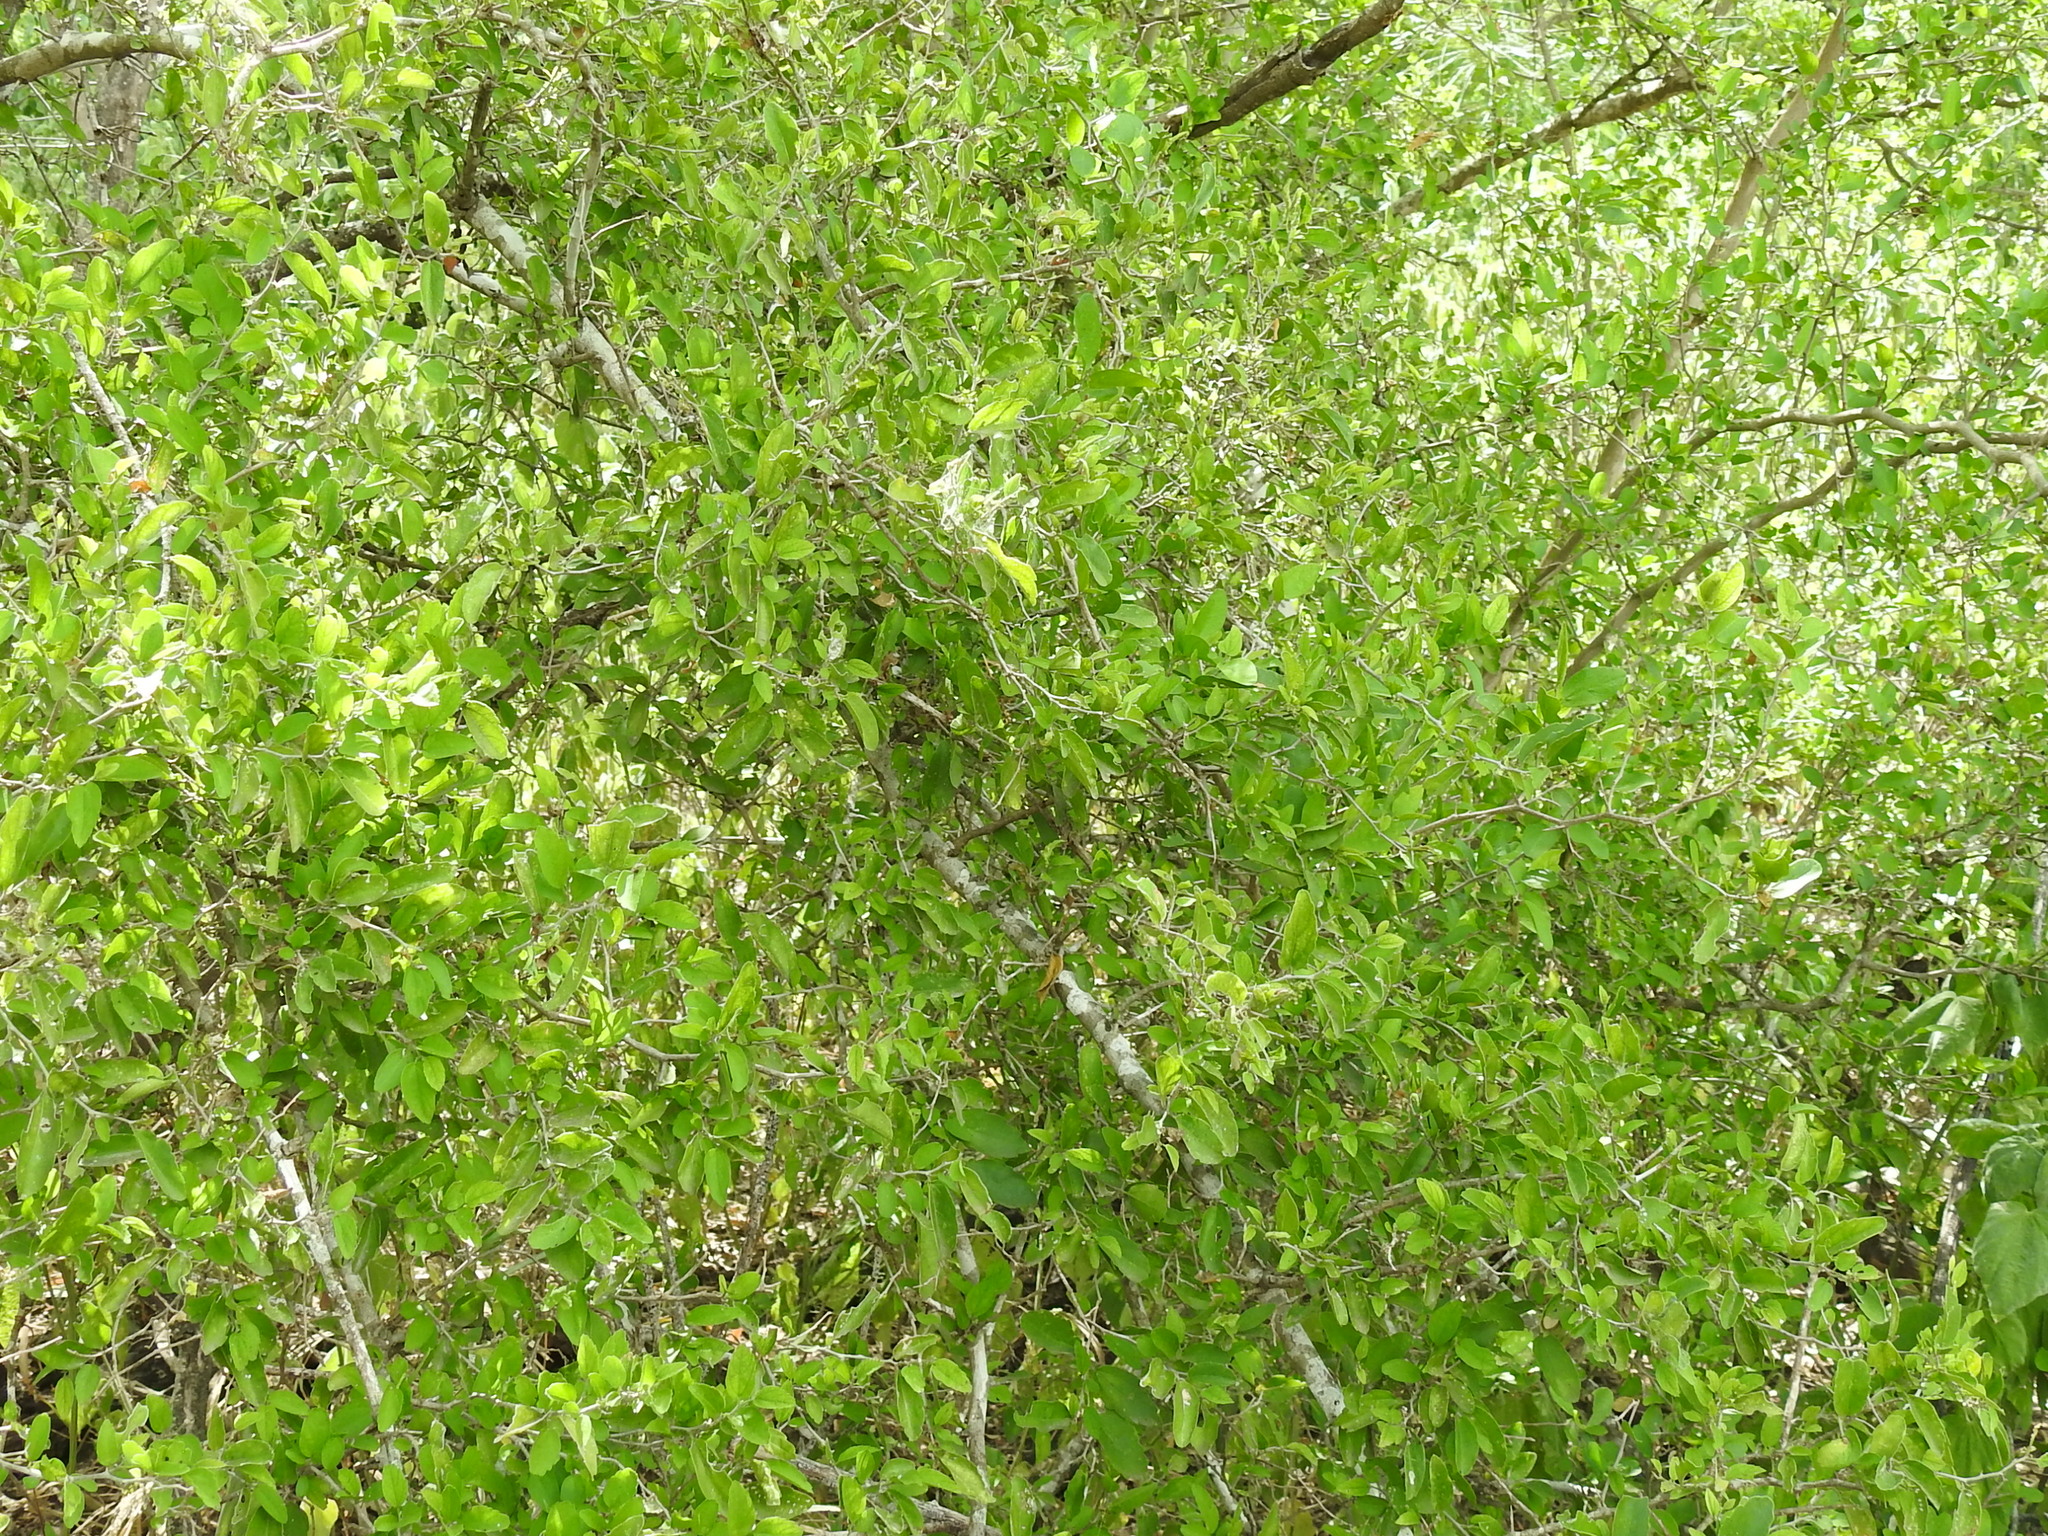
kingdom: Plantae
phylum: Tracheophyta
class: Magnoliopsida
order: Rosales
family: Cannabaceae
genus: Celtis
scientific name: Celtis pallida
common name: Desert hackberry
